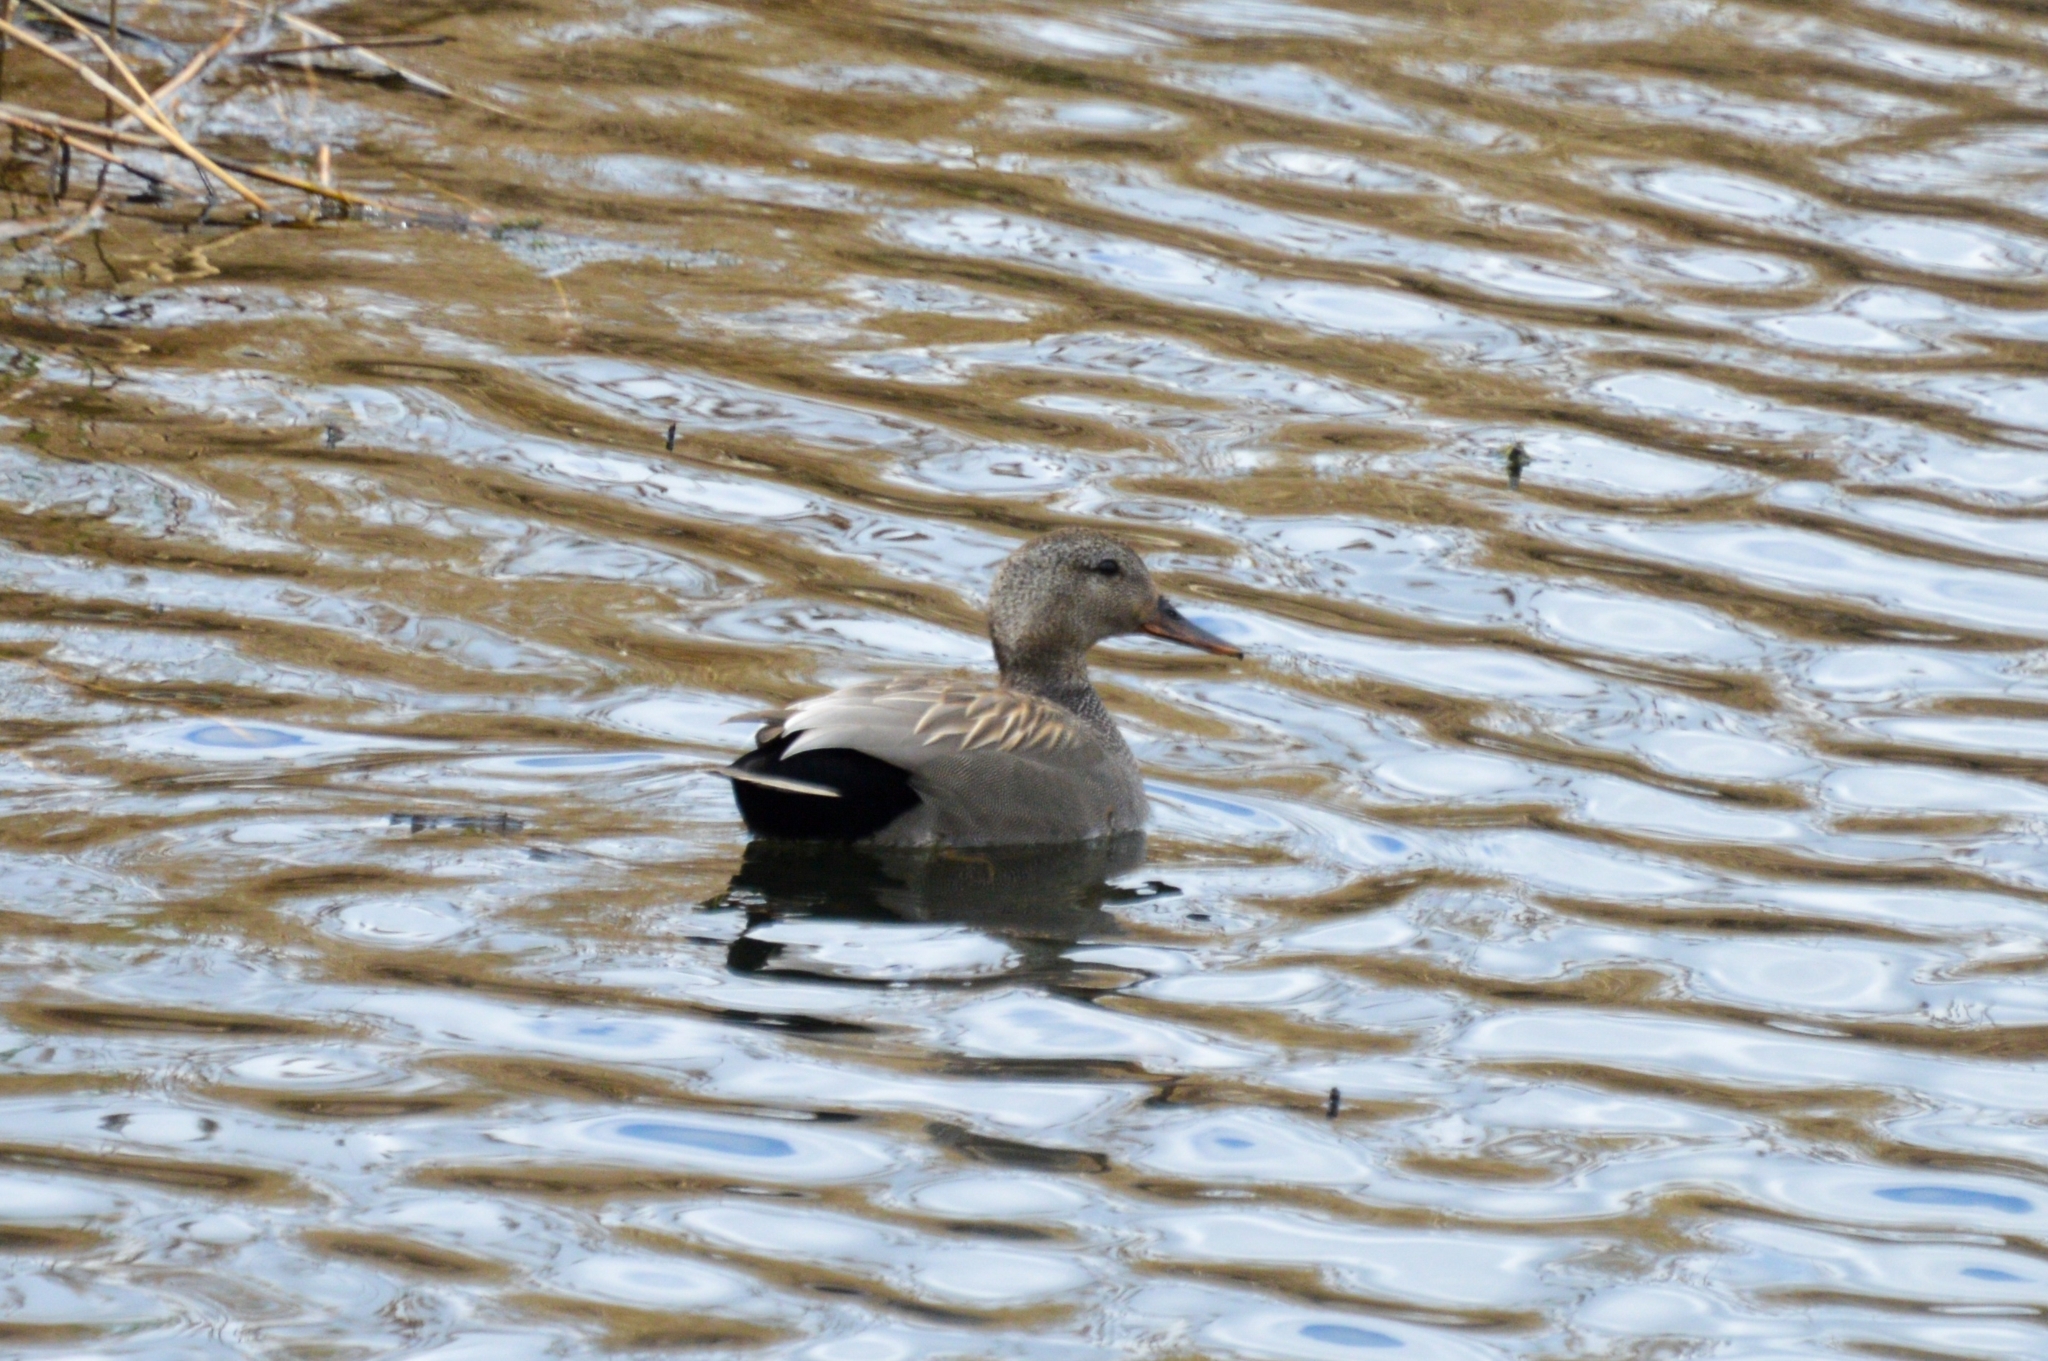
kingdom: Animalia
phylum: Chordata
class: Aves
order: Anseriformes
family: Anatidae
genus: Mareca
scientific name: Mareca strepera
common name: Gadwall
